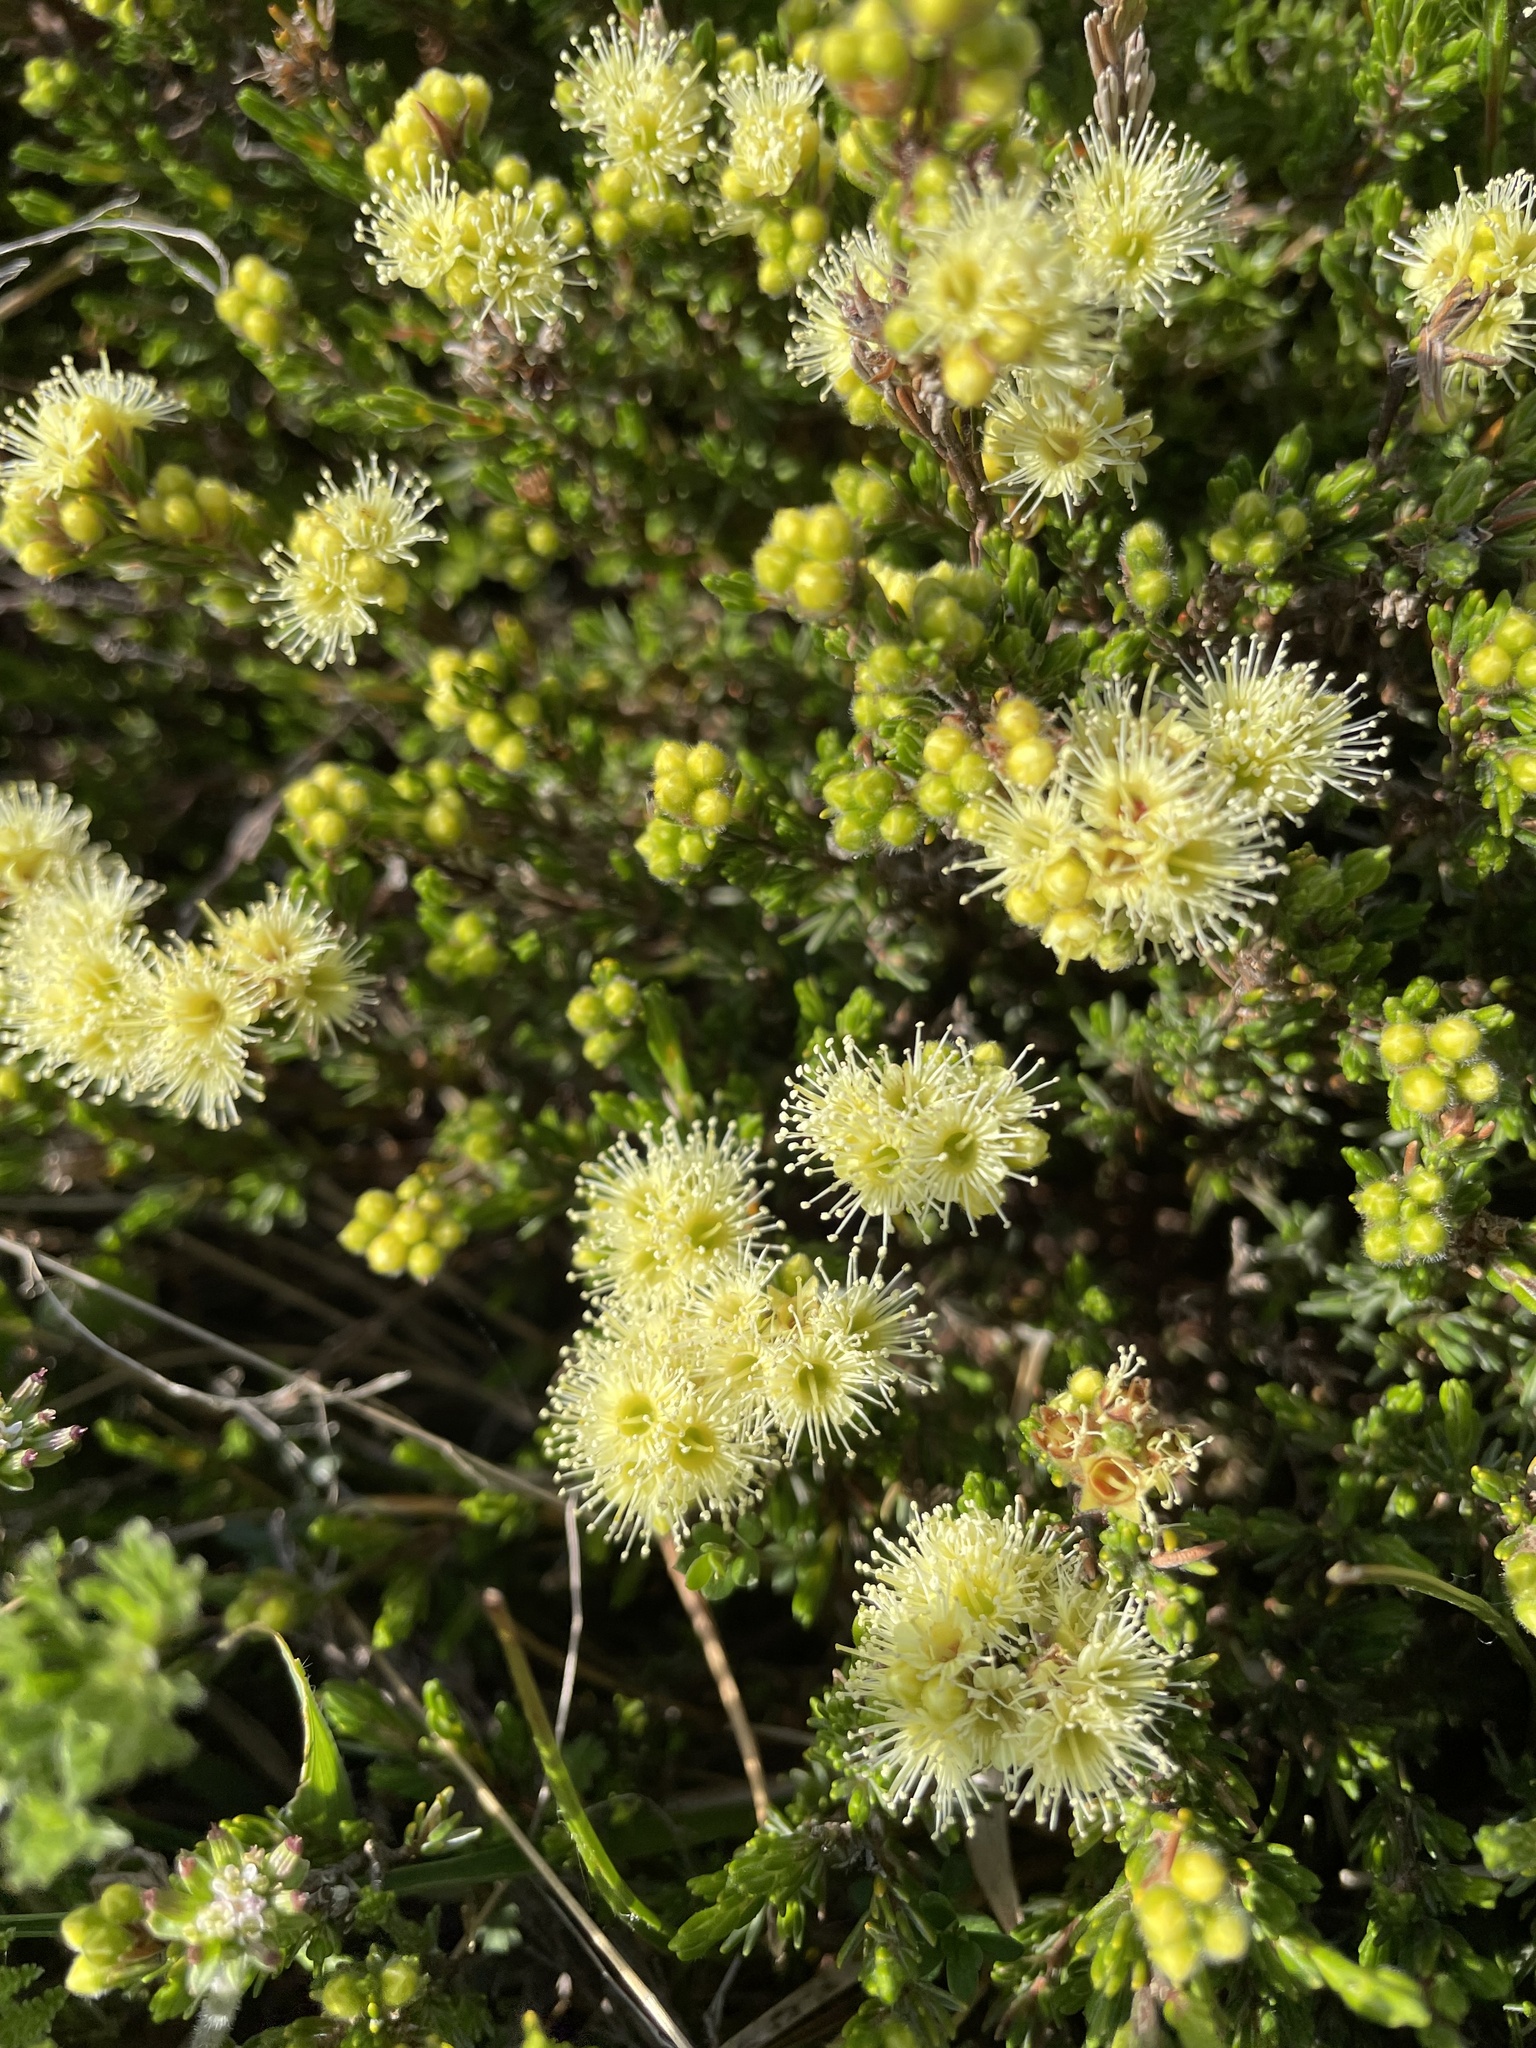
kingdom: Plantae
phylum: Tracheophyta
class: Magnoliopsida
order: Myrtales
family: Myrtaceae
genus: Kunzea
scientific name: Kunzea muelleri
